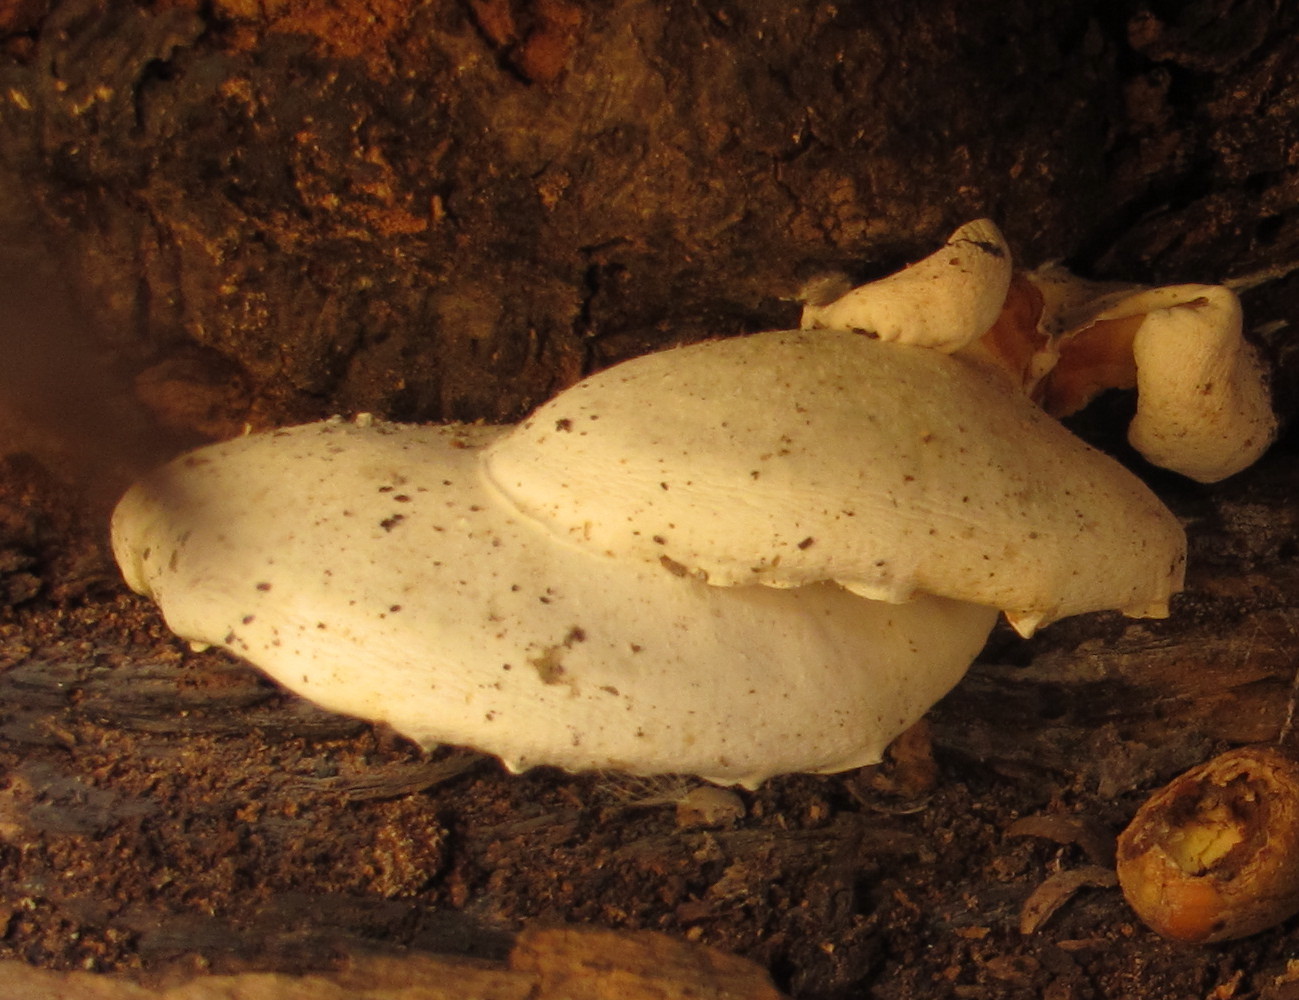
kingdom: Fungi
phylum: Basidiomycota
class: Agaricomycetes
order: Agaricales
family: Lyophyllaceae
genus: Ossicaulis
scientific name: Ossicaulis lignatilis
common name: Mealy oyster
